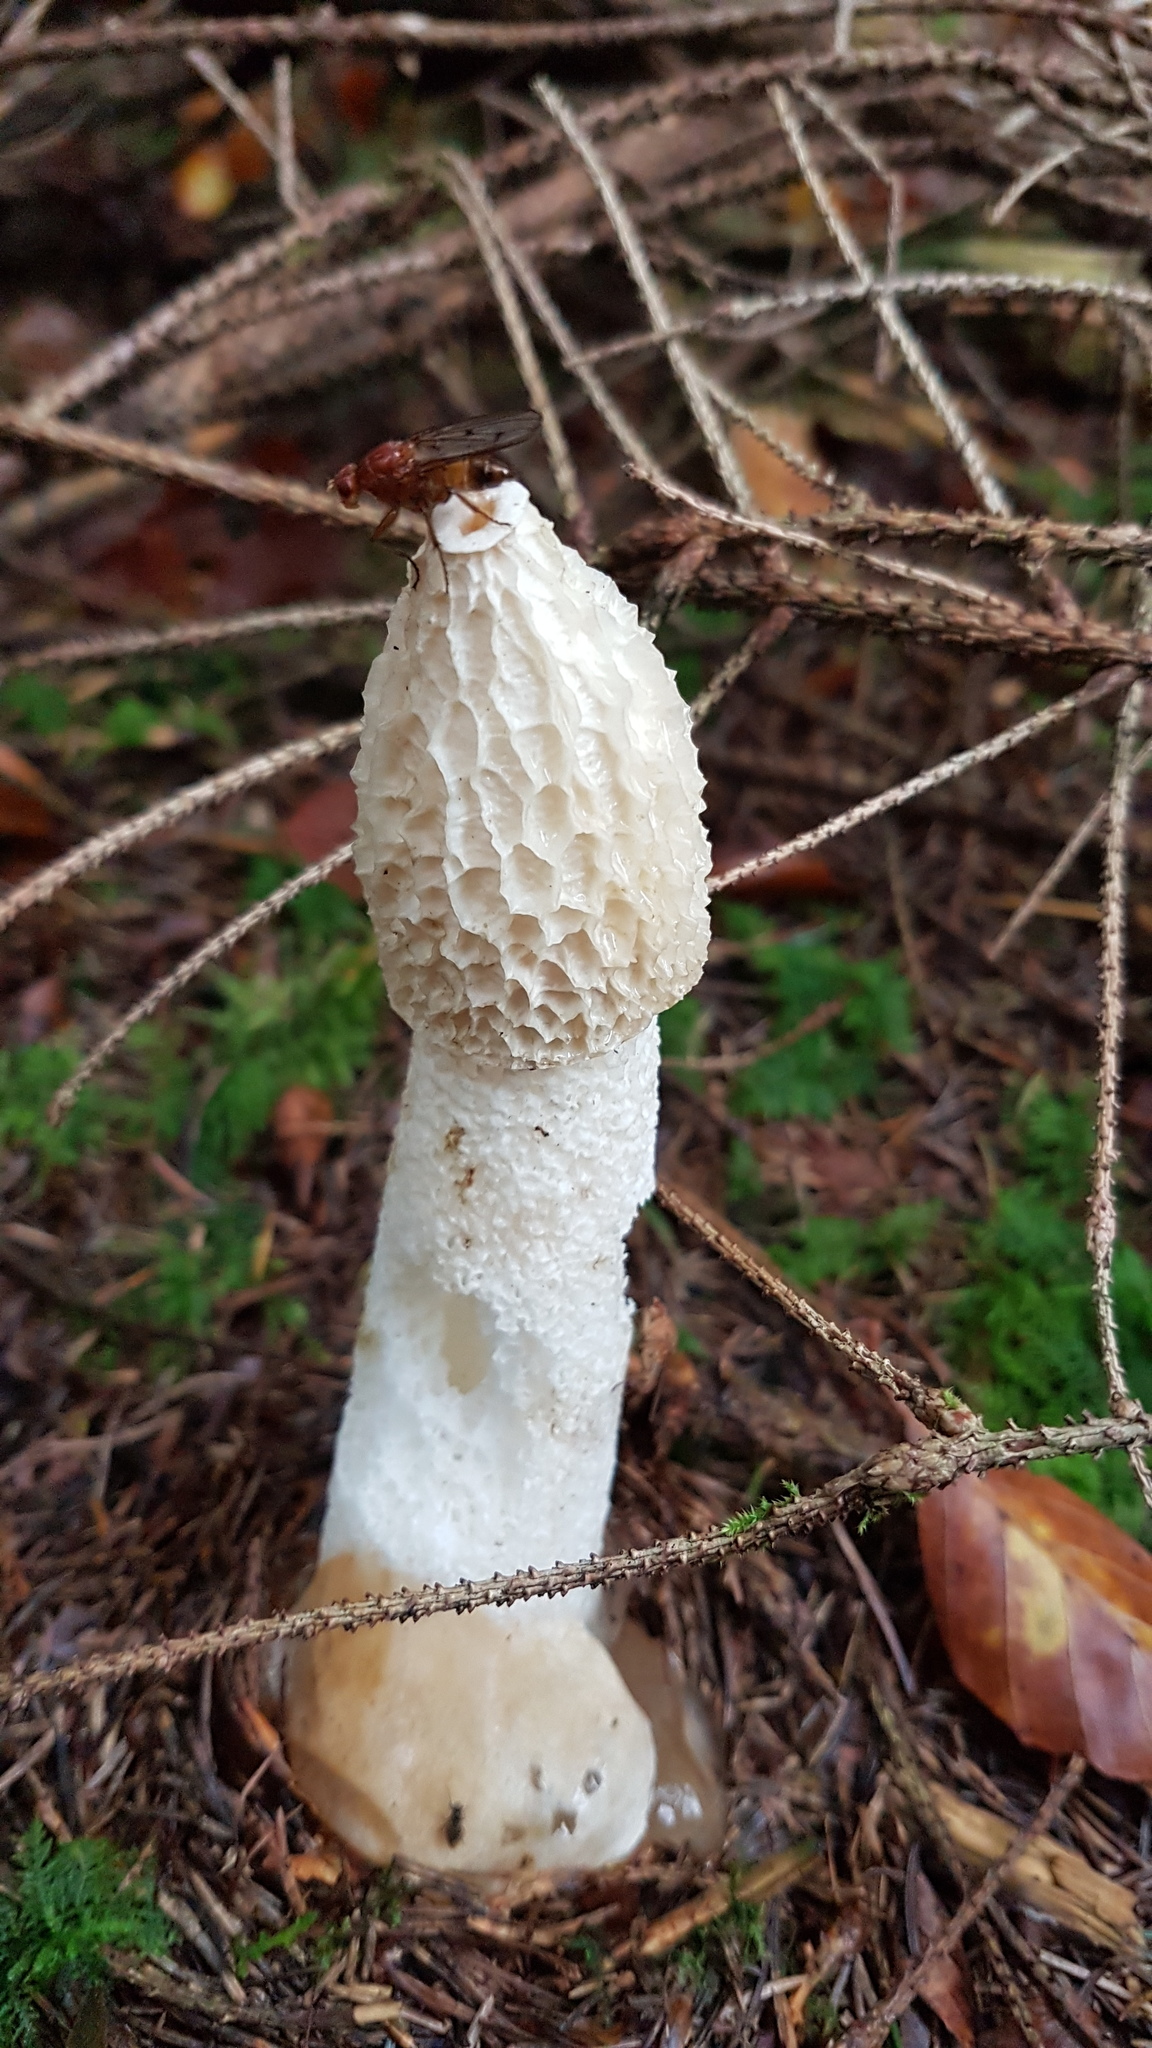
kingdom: Fungi
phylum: Basidiomycota
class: Agaricomycetes
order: Phallales
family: Phallaceae
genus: Phallus
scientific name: Phallus impudicus
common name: Common stinkhorn
